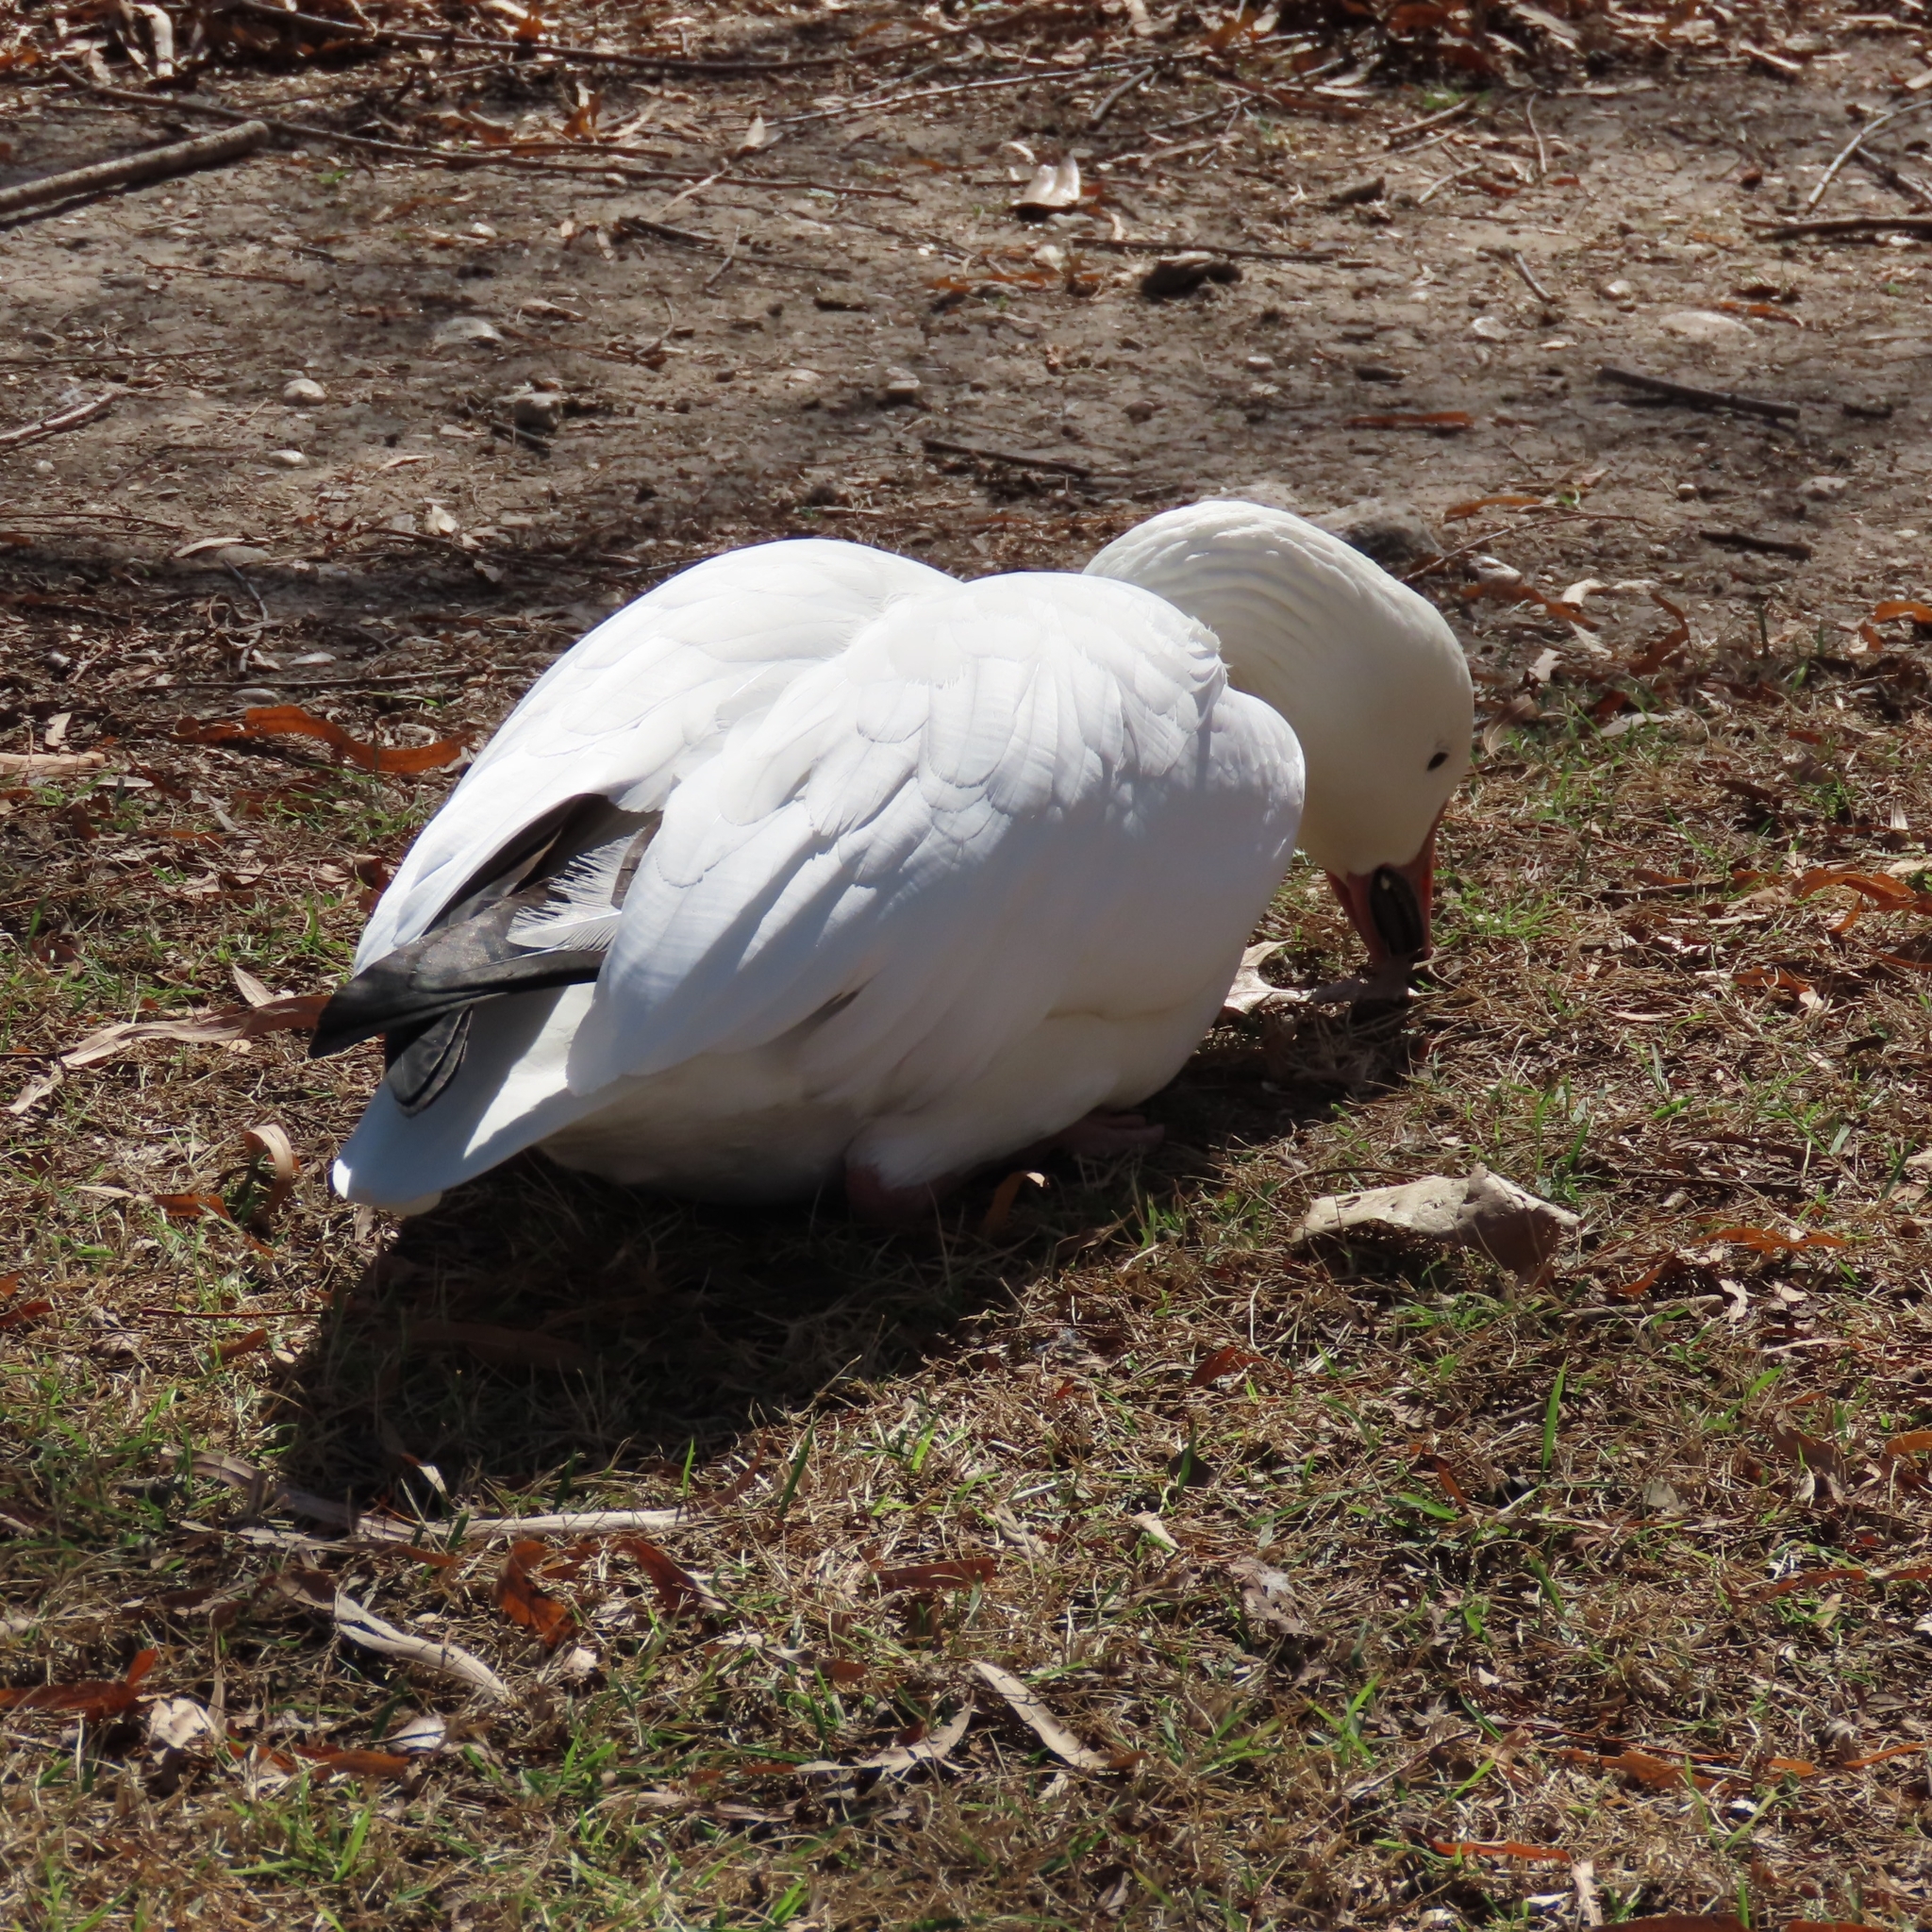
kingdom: Animalia
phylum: Chordata
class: Aves
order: Anseriformes
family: Anatidae
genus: Anser
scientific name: Anser caerulescens
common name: Snow goose
